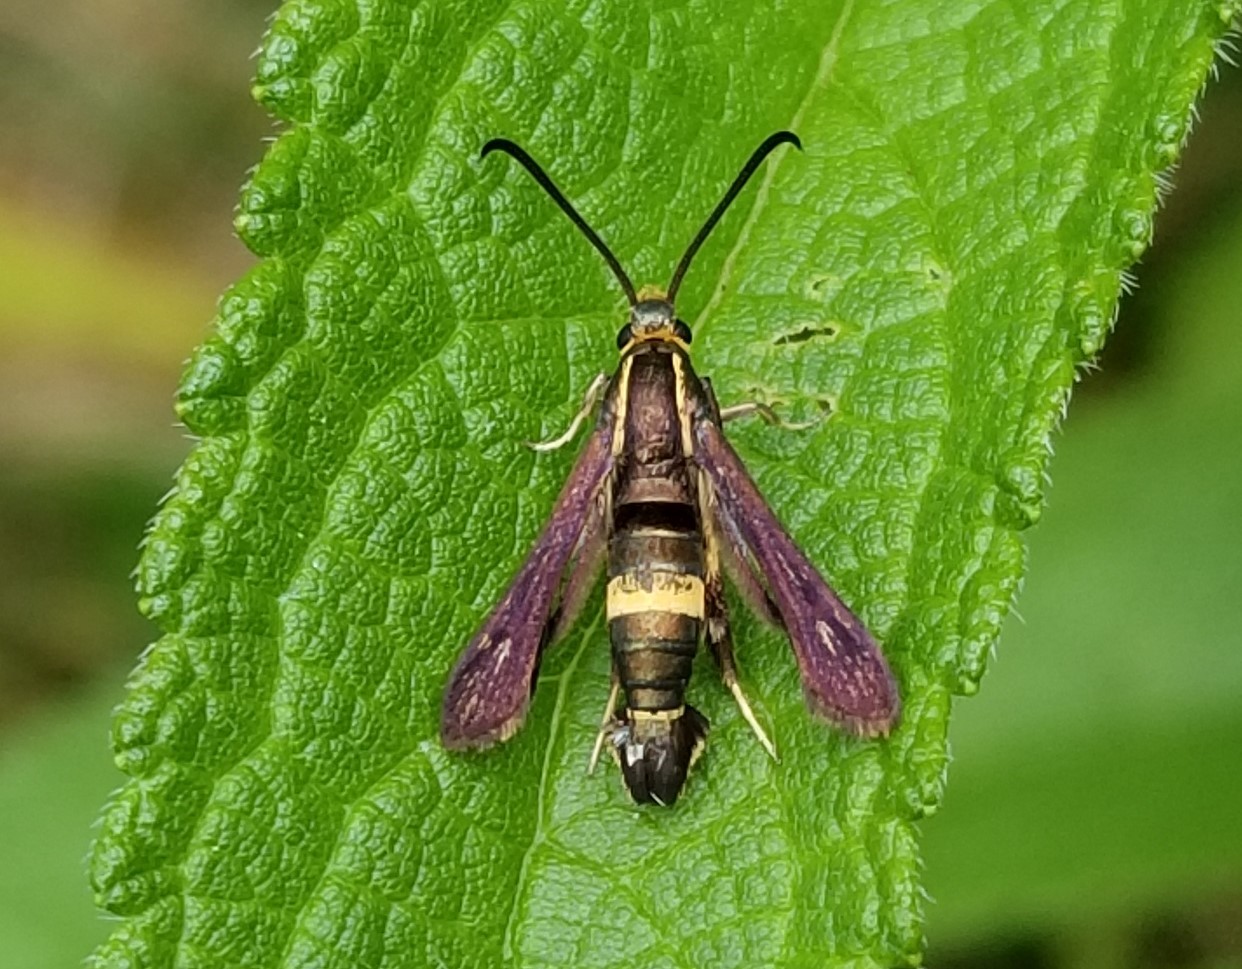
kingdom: Animalia
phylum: Arthropoda
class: Insecta
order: Lepidoptera
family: Sesiidae
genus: Carmenta
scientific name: Carmenta pyralidiformis
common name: Boneset borer moth
